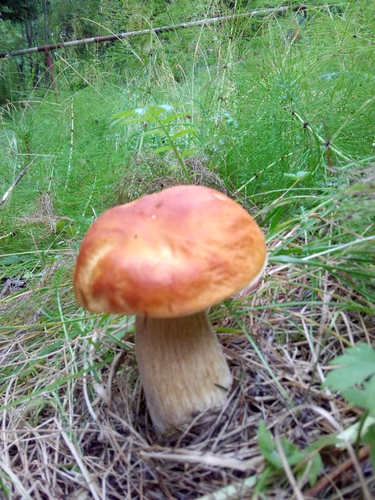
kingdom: Fungi
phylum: Basidiomycota
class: Agaricomycetes
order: Boletales
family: Boletaceae
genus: Boletus
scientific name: Boletus edulis
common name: Cep
